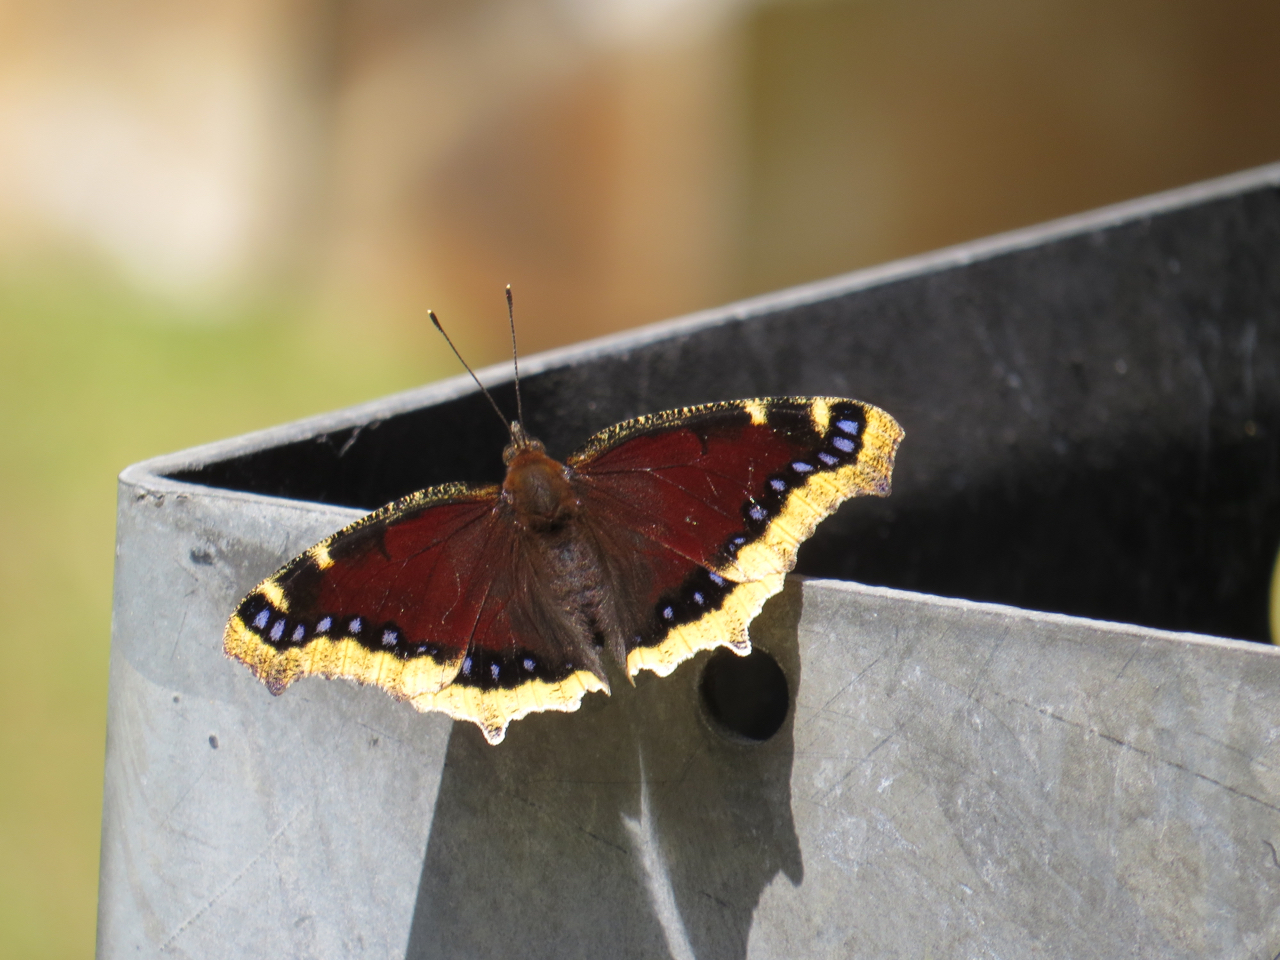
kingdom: Animalia
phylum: Arthropoda
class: Insecta
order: Lepidoptera
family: Nymphalidae
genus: Nymphalis
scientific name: Nymphalis antiopa
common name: Camberwell beauty
